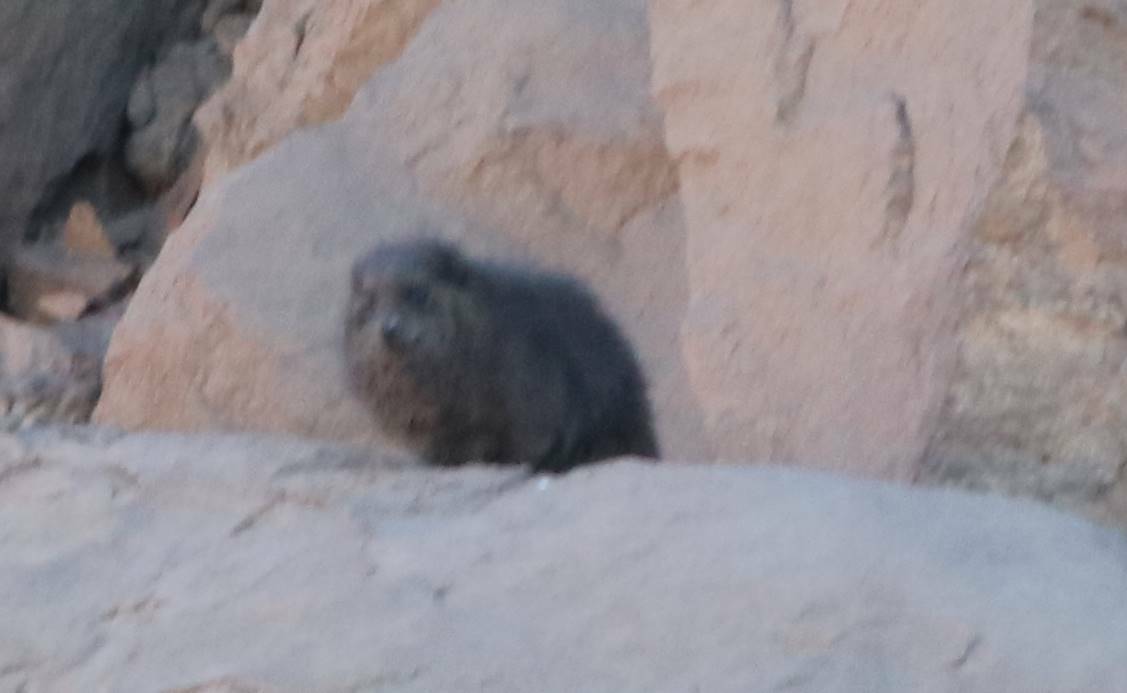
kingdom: Animalia
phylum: Chordata
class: Mammalia
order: Hyracoidea
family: Procaviidae
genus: Procavia
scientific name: Procavia capensis
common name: Rock hyrax
